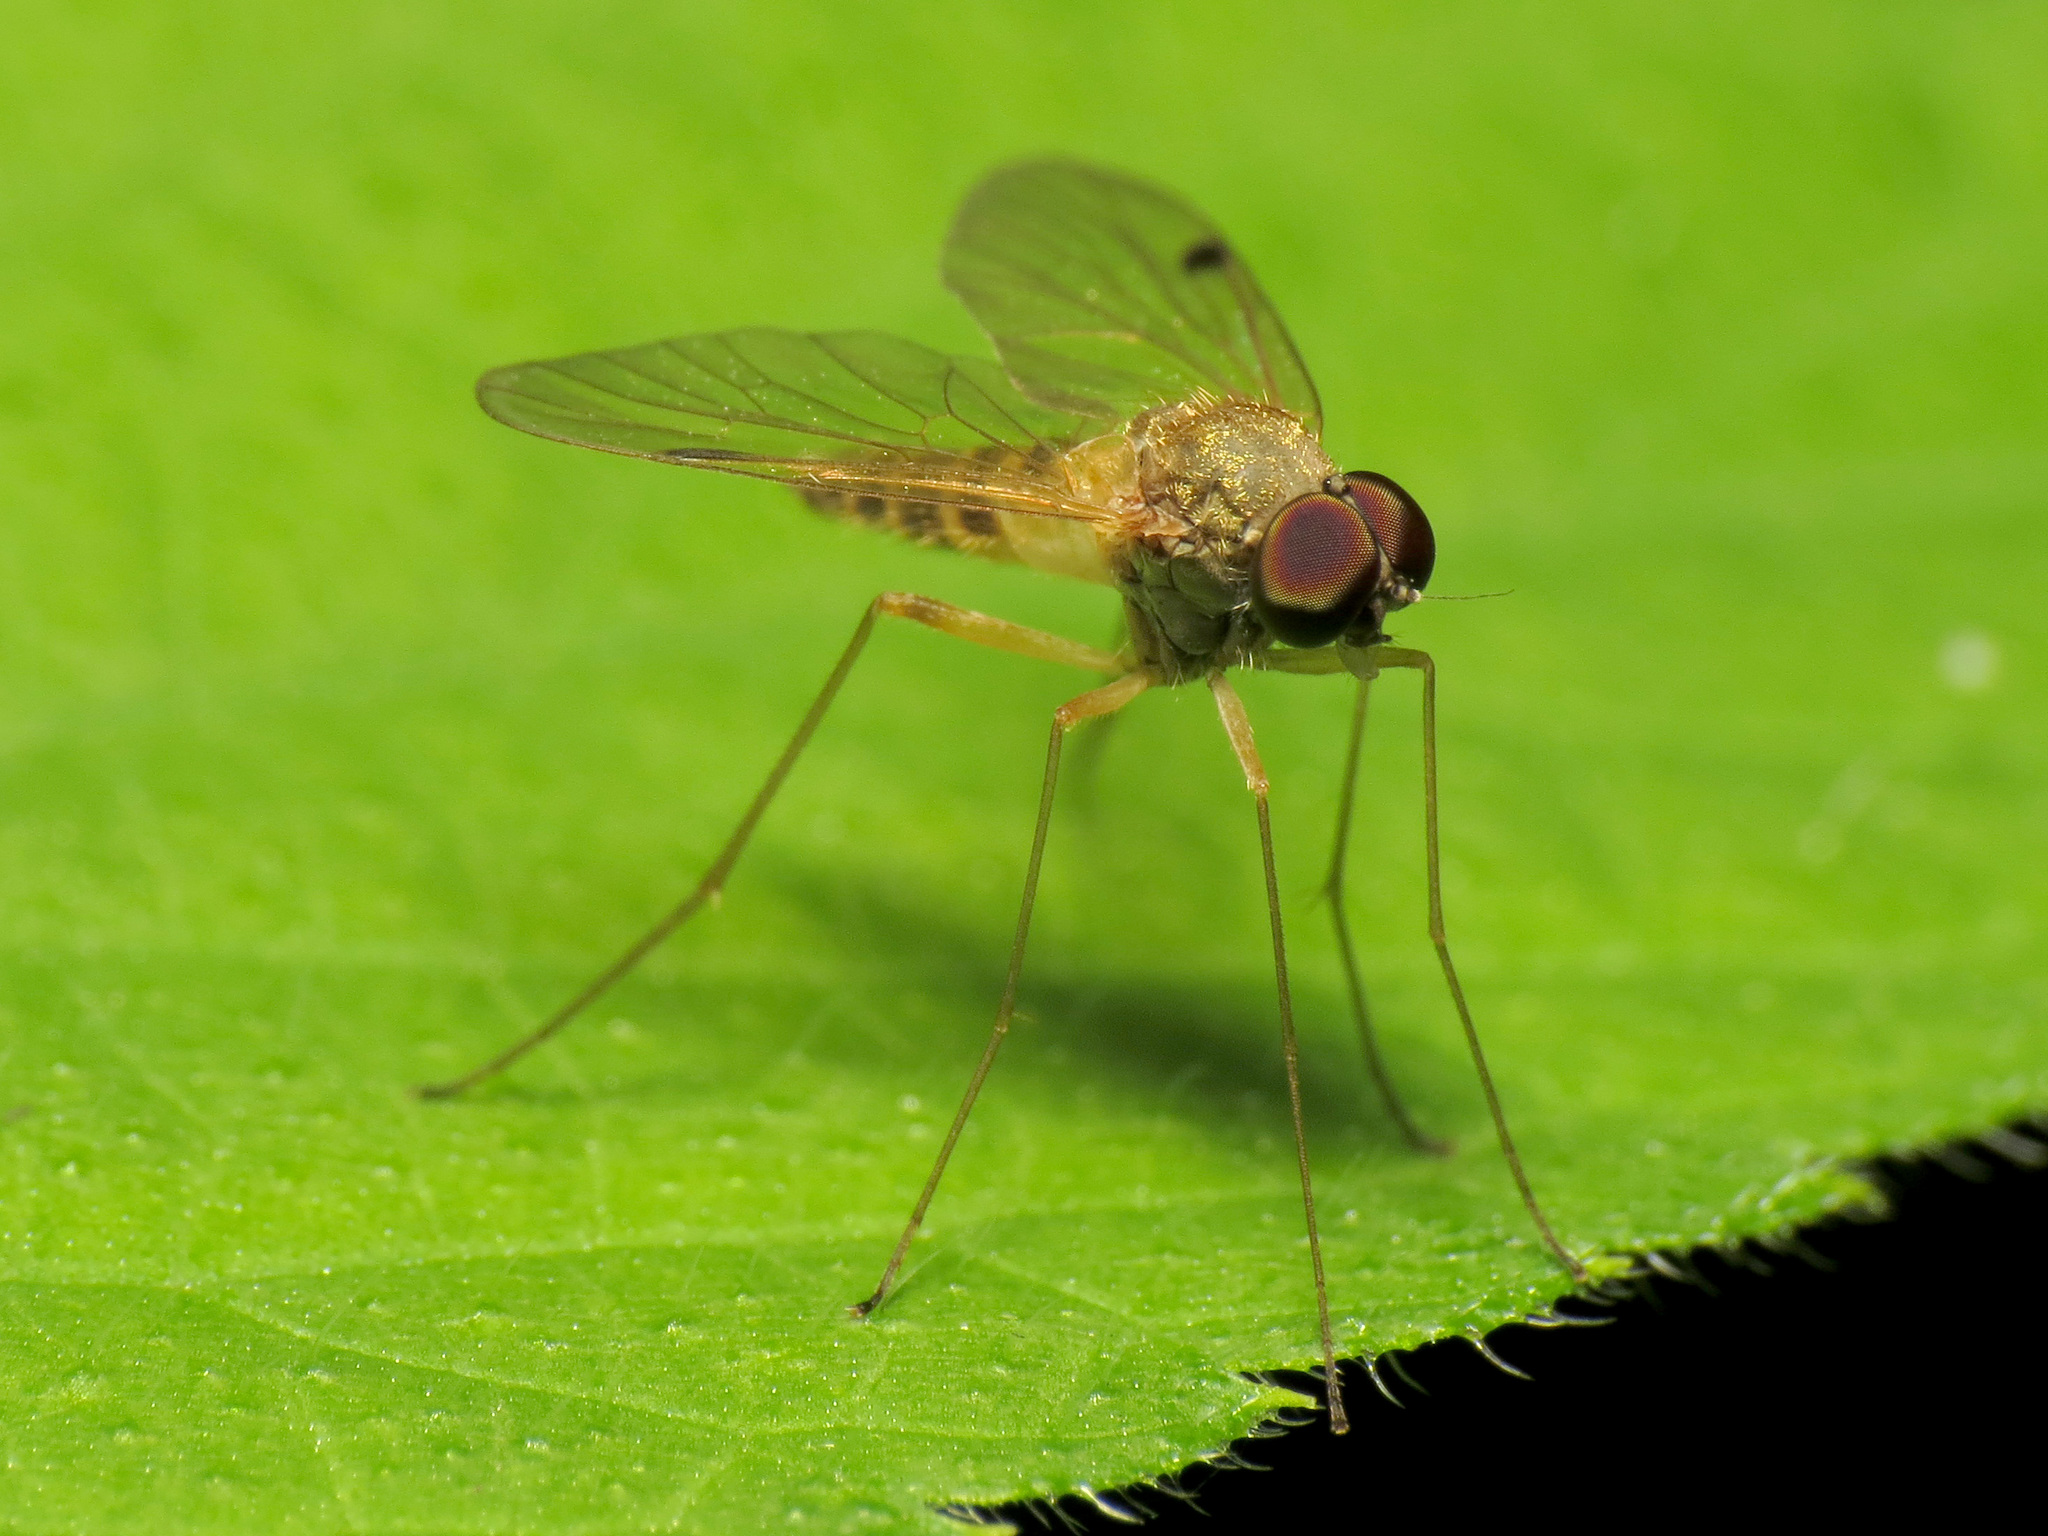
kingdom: Animalia
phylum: Arthropoda
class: Insecta
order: Diptera
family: Rhagionidae
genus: Chrysopilus
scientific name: Chrysopilus modestus
